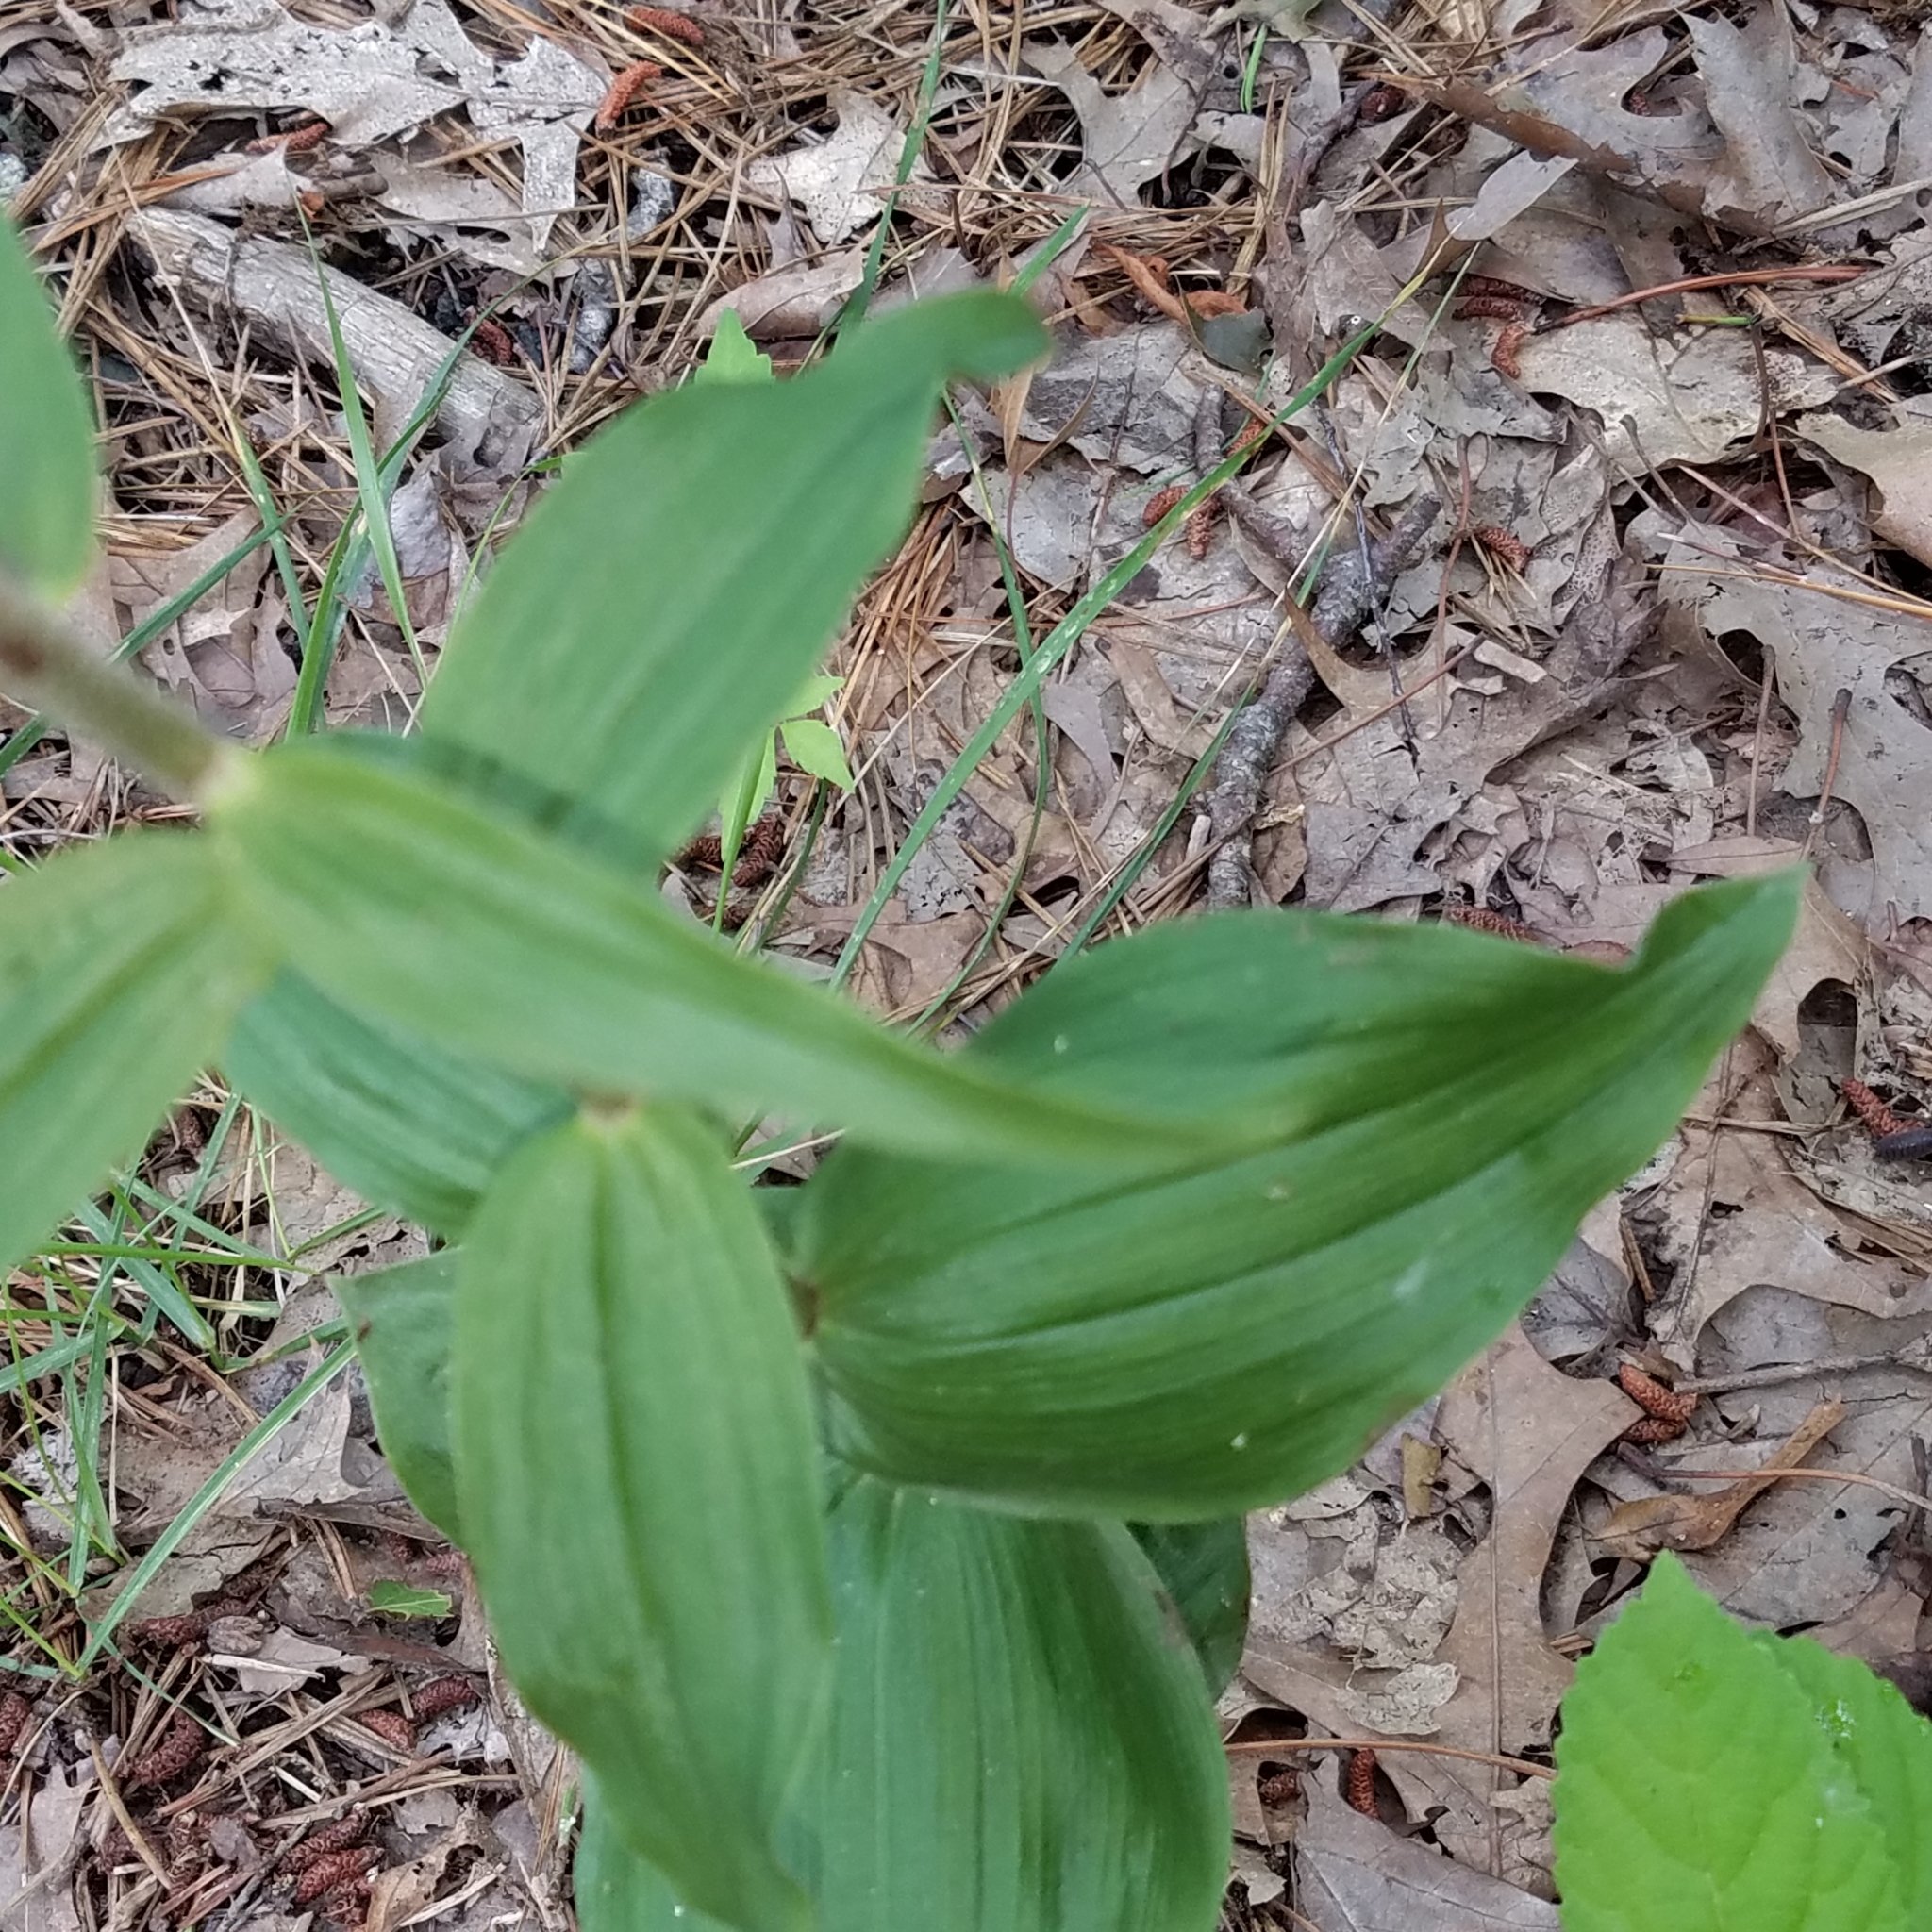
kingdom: Plantae
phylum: Tracheophyta
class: Liliopsida
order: Asparagales
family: Orchidaceae
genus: Epipactis
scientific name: Epipactis helleborine
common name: Broad-leaved helleborine
